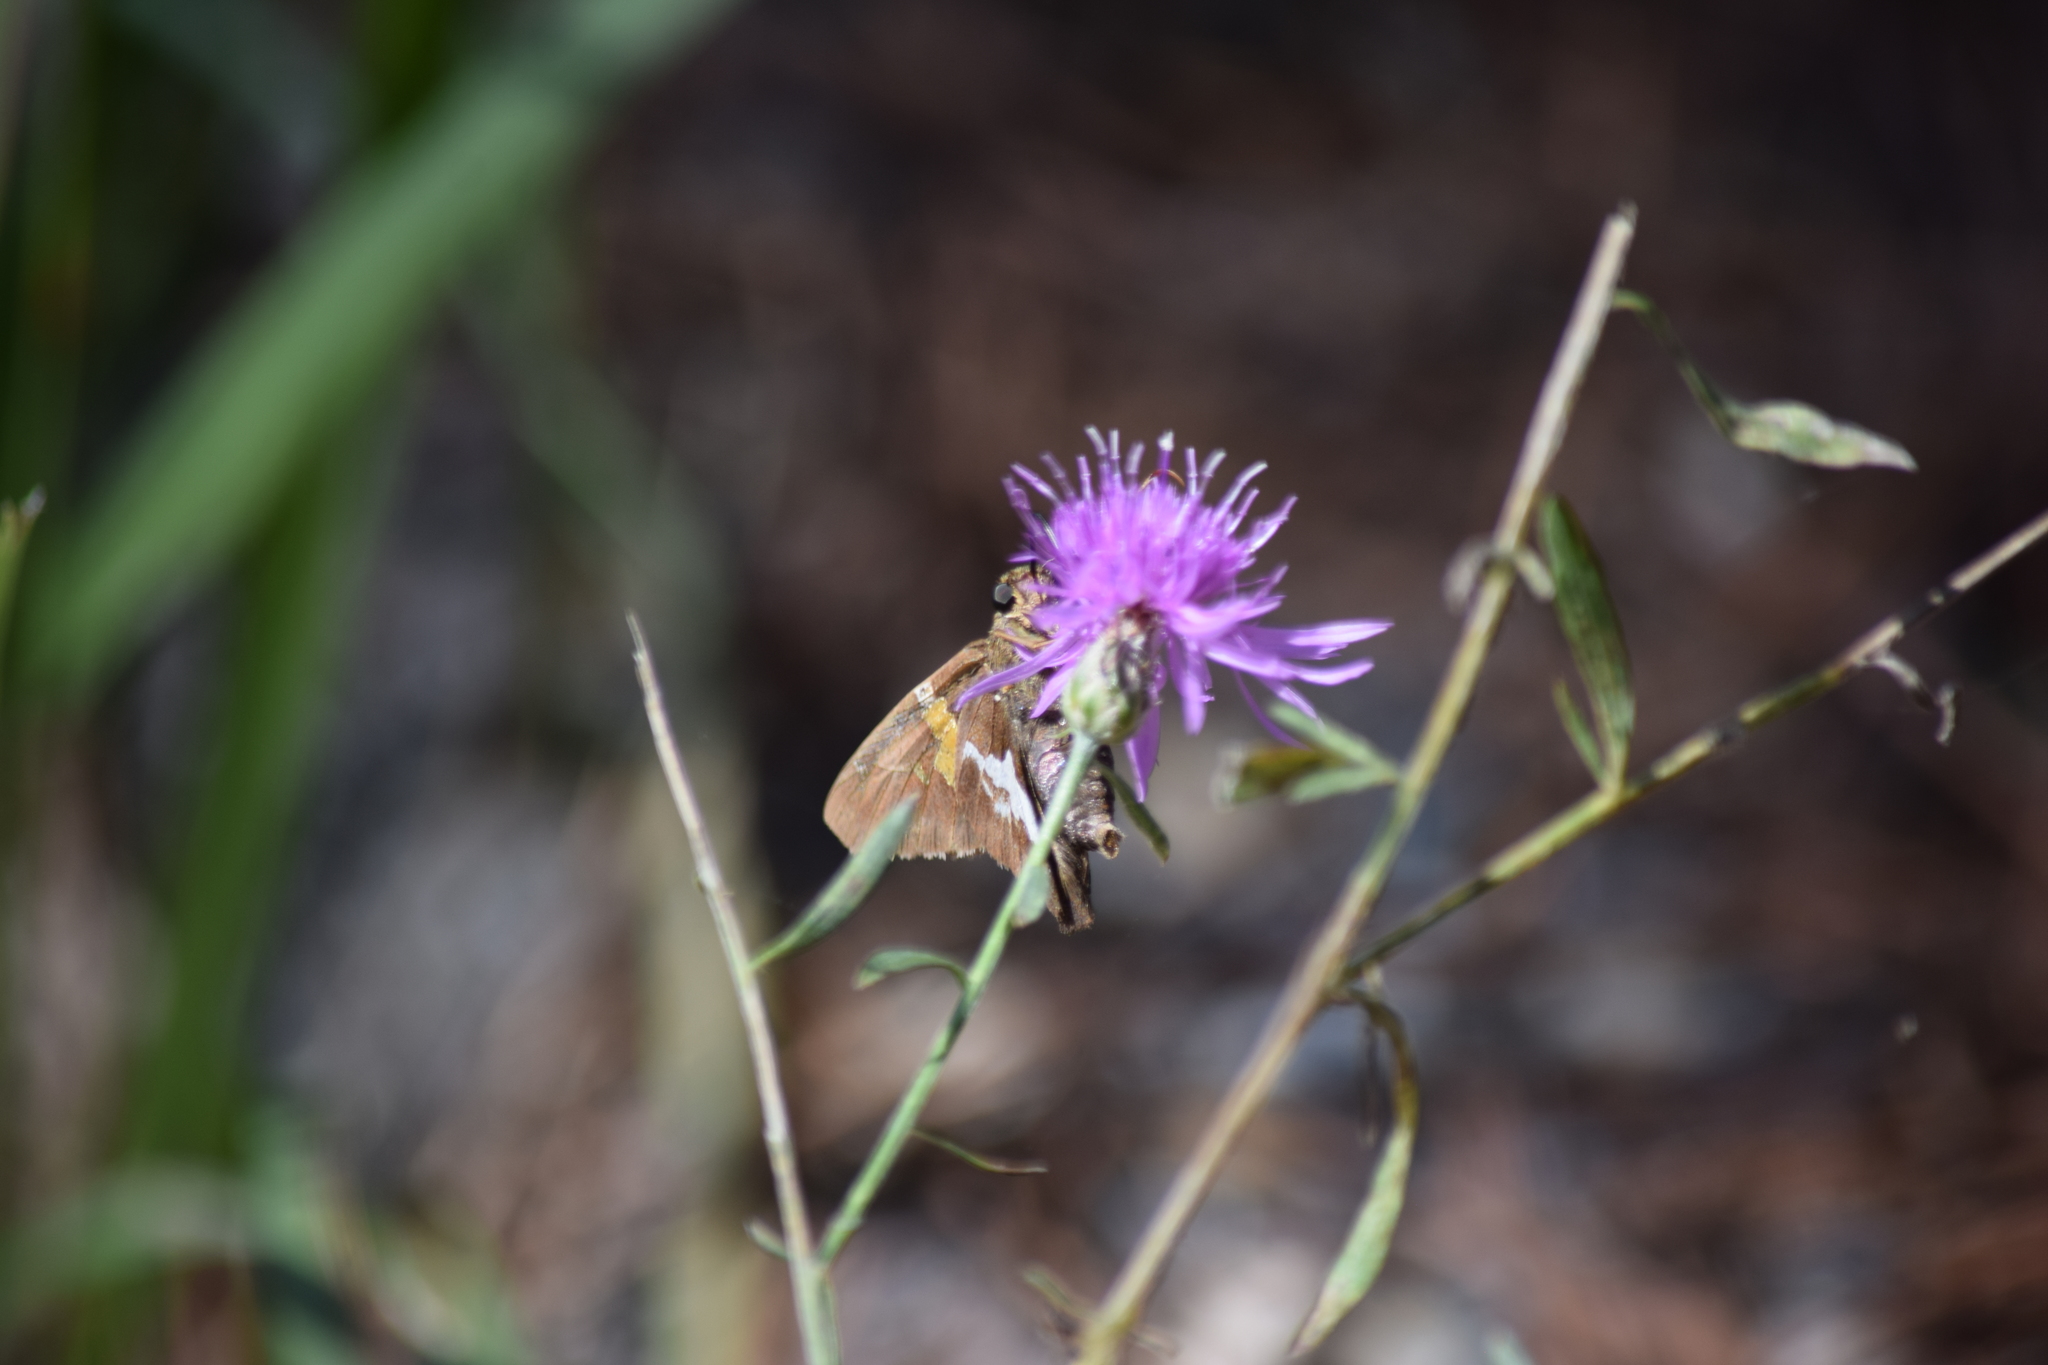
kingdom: Animalia
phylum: Arthropoda
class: Insecta
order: Lepidoptera
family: Hesperiidae
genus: Epargyreus
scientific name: Epargyreus clarus
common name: Silver-spotted skipper
